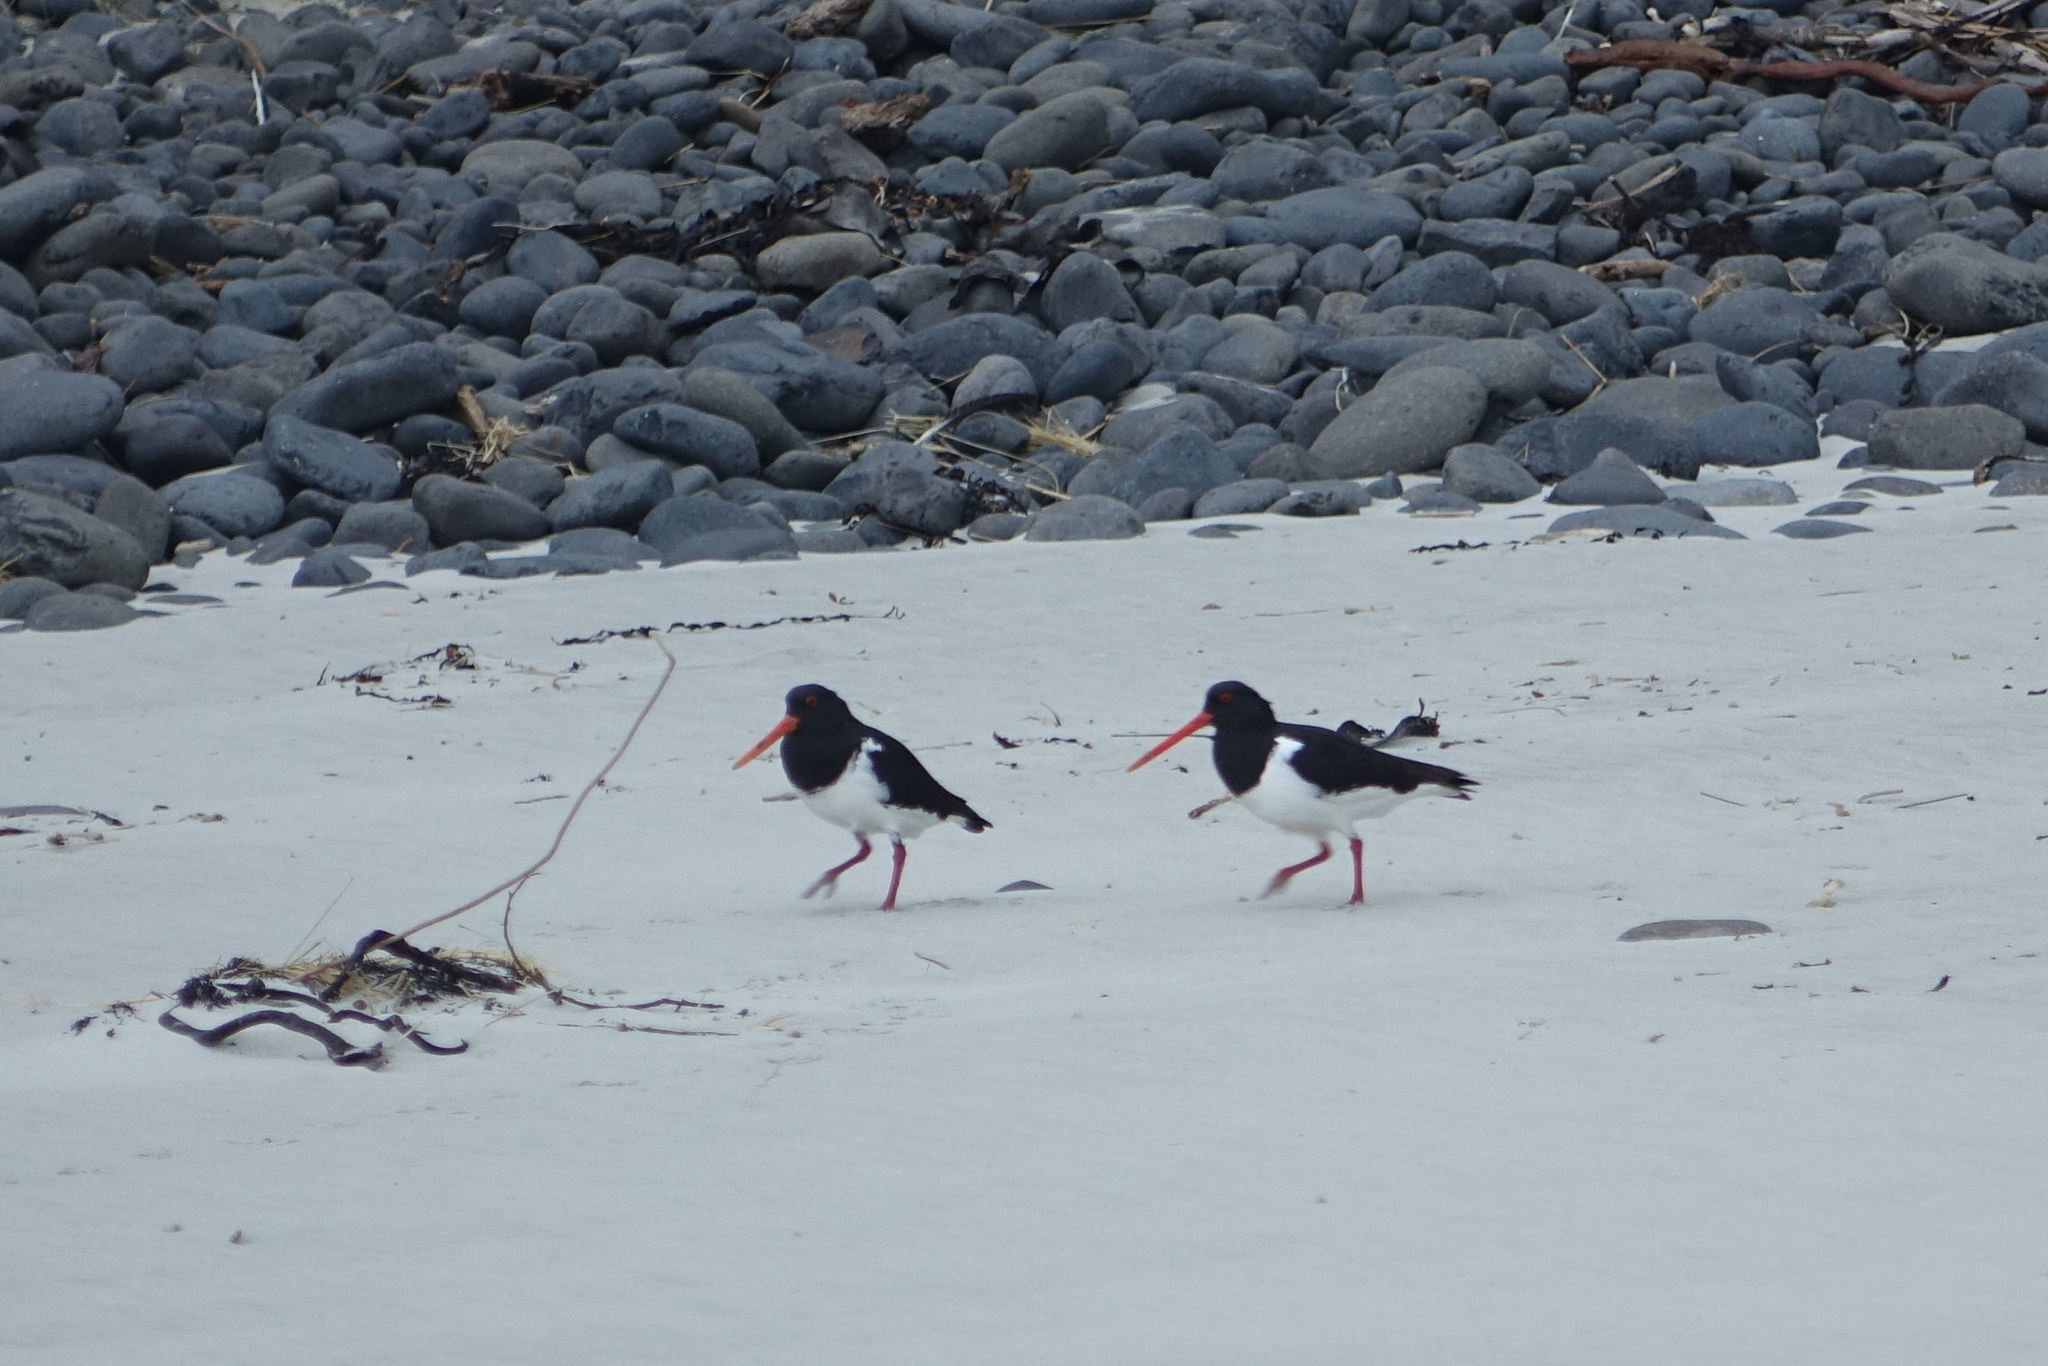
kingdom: Animalia
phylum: Chordata
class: Aves
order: Charadriiformes
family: Haematopodidae
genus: Haematopus
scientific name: Haematopus finschi
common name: South island oystercatcher
